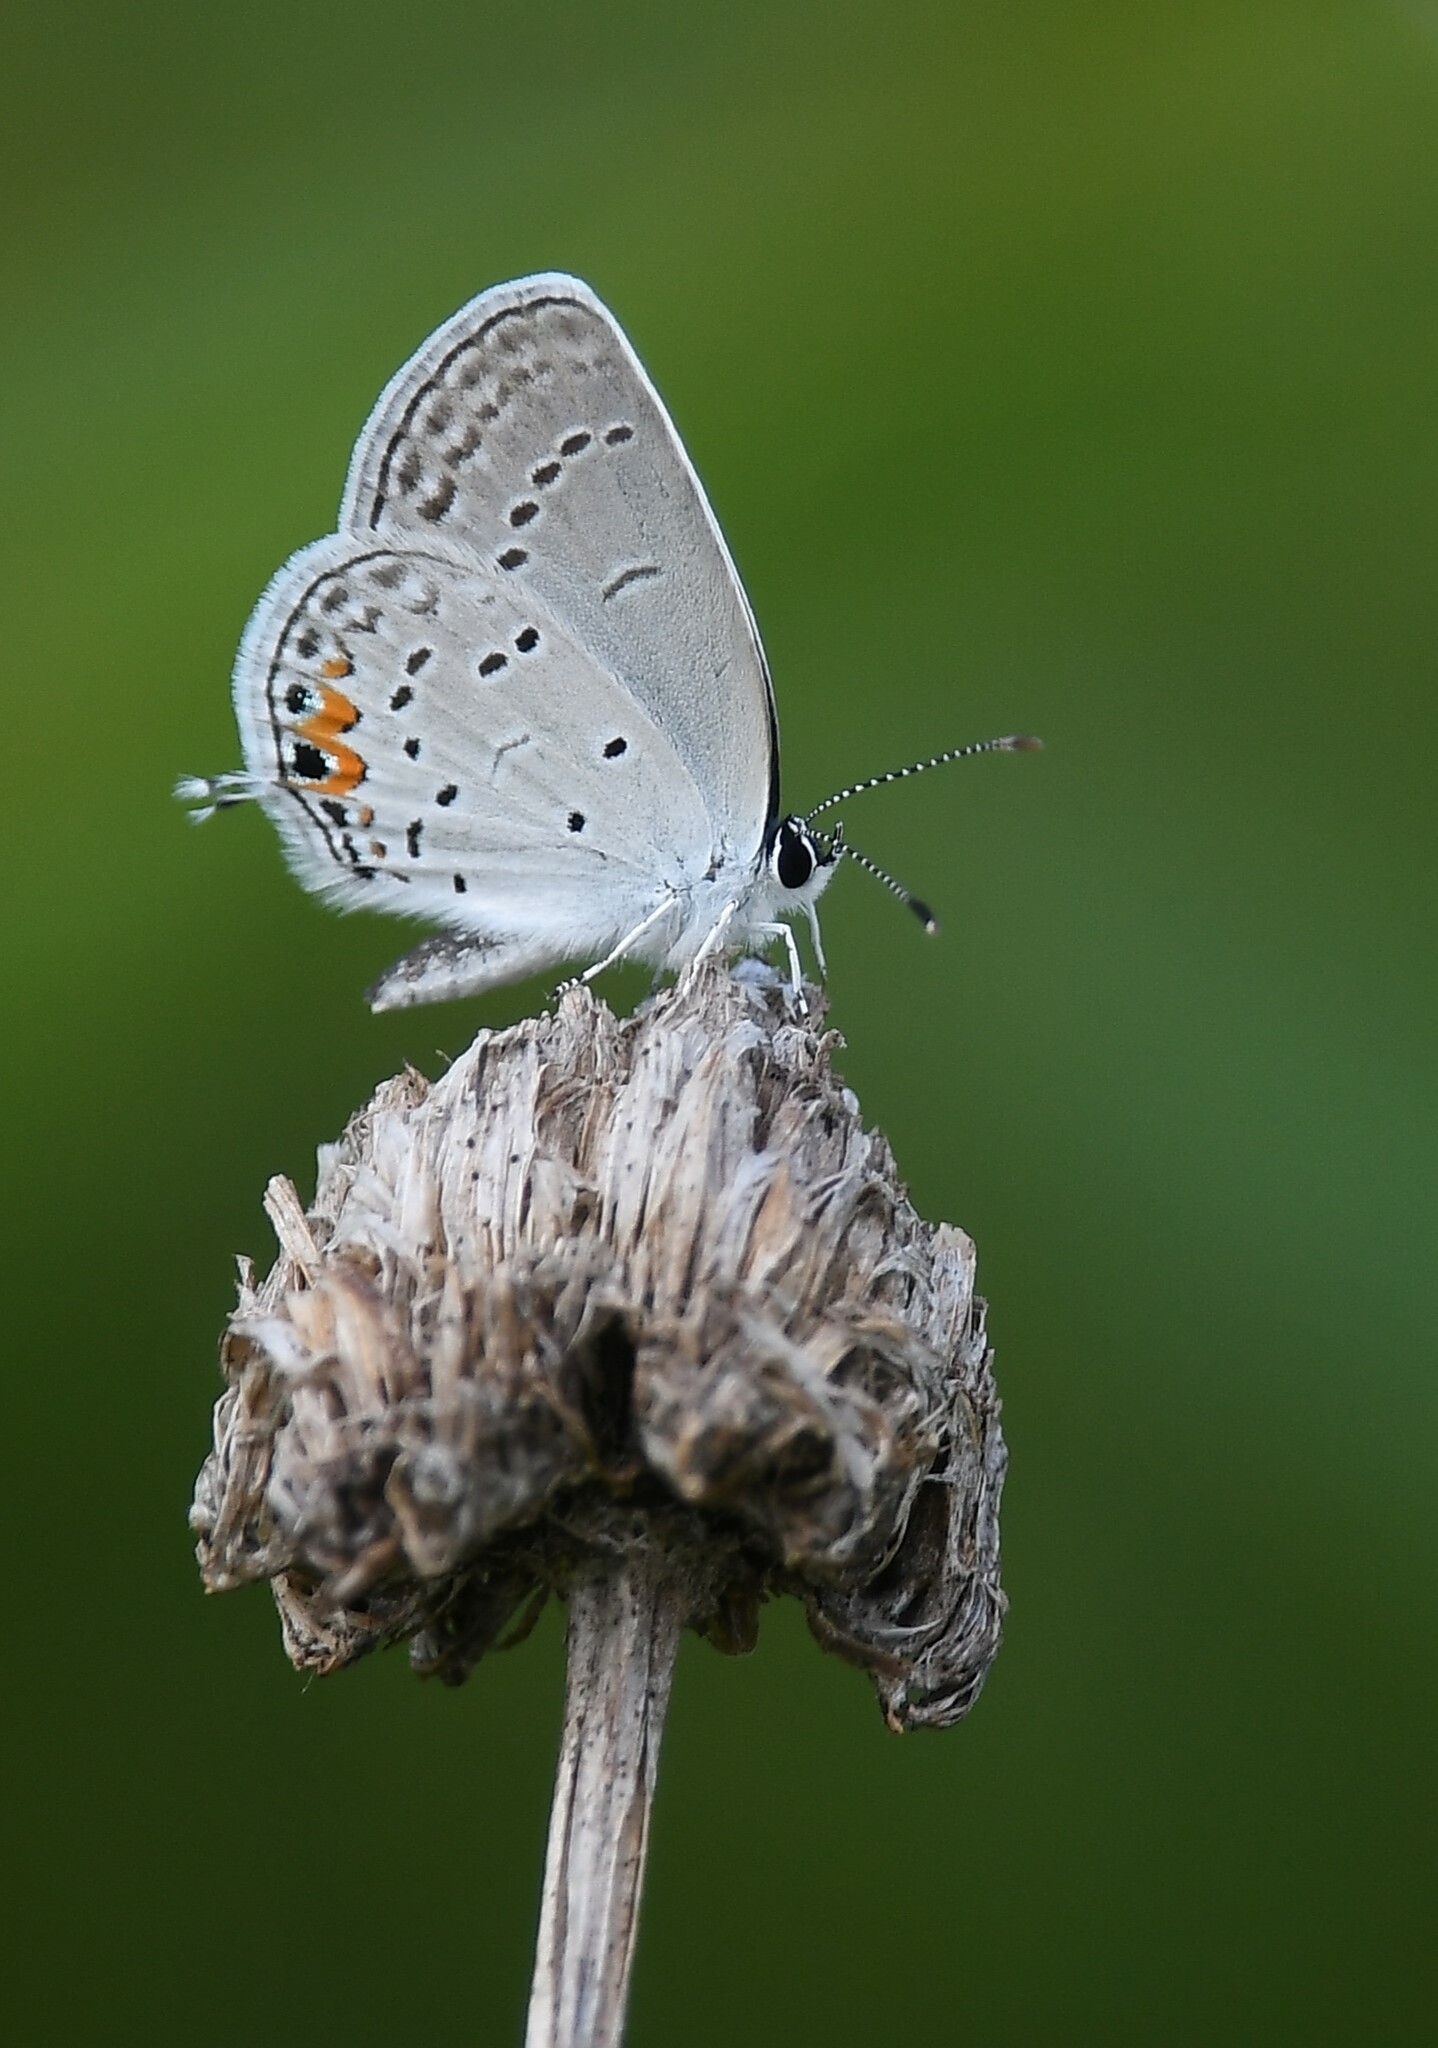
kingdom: Animalia
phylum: Arthropoda
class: Insecta
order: Lepidoptera
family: Lycaenidae
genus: Elkalyce
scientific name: Elkalyce comyntas
